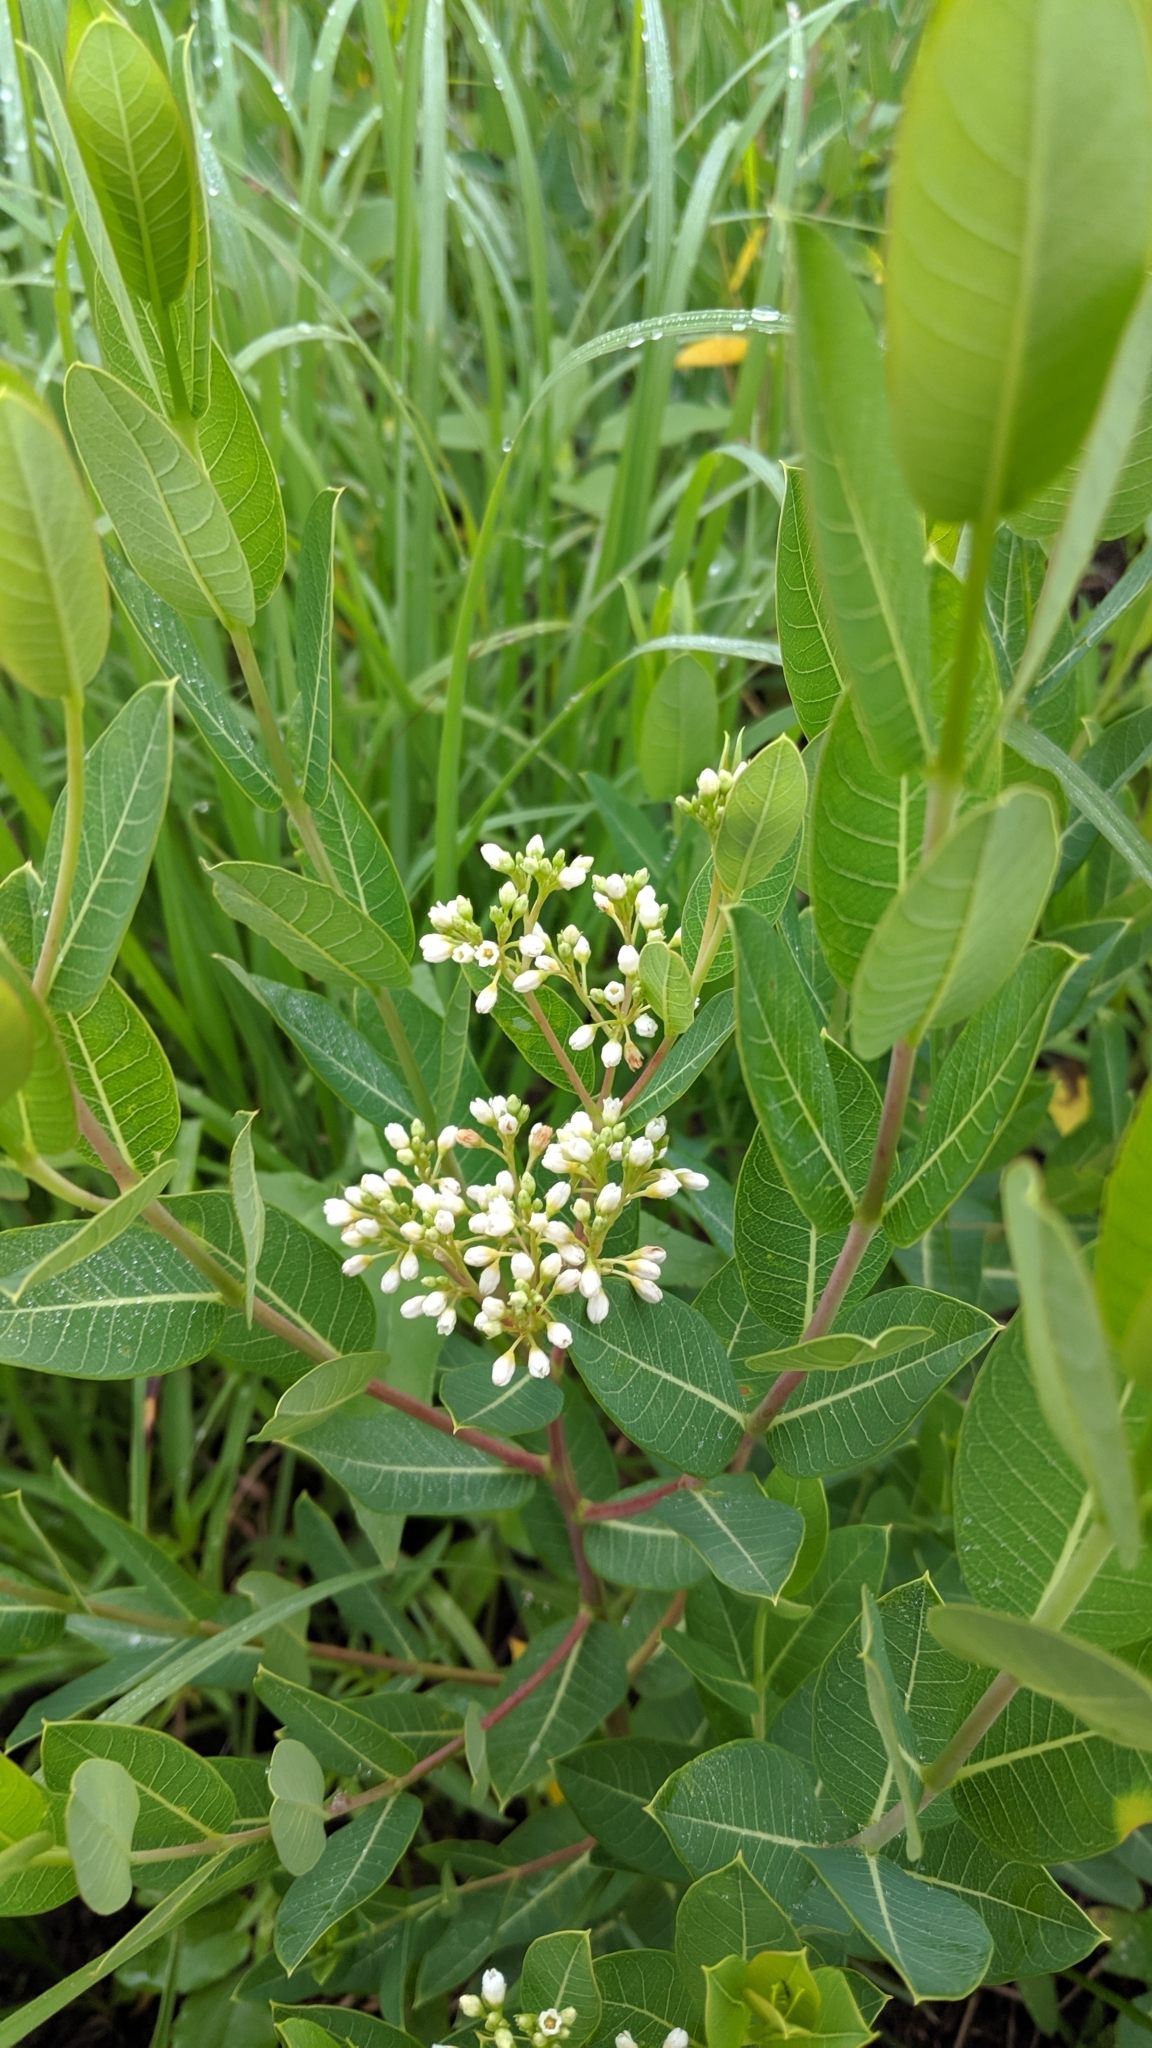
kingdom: Plantae
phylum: Tracheophyta
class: Magnoliopsida
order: Gentianales
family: Apocynaceae
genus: Apocynum
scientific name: Apocynum cannabinum
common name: Hemp dogbane
